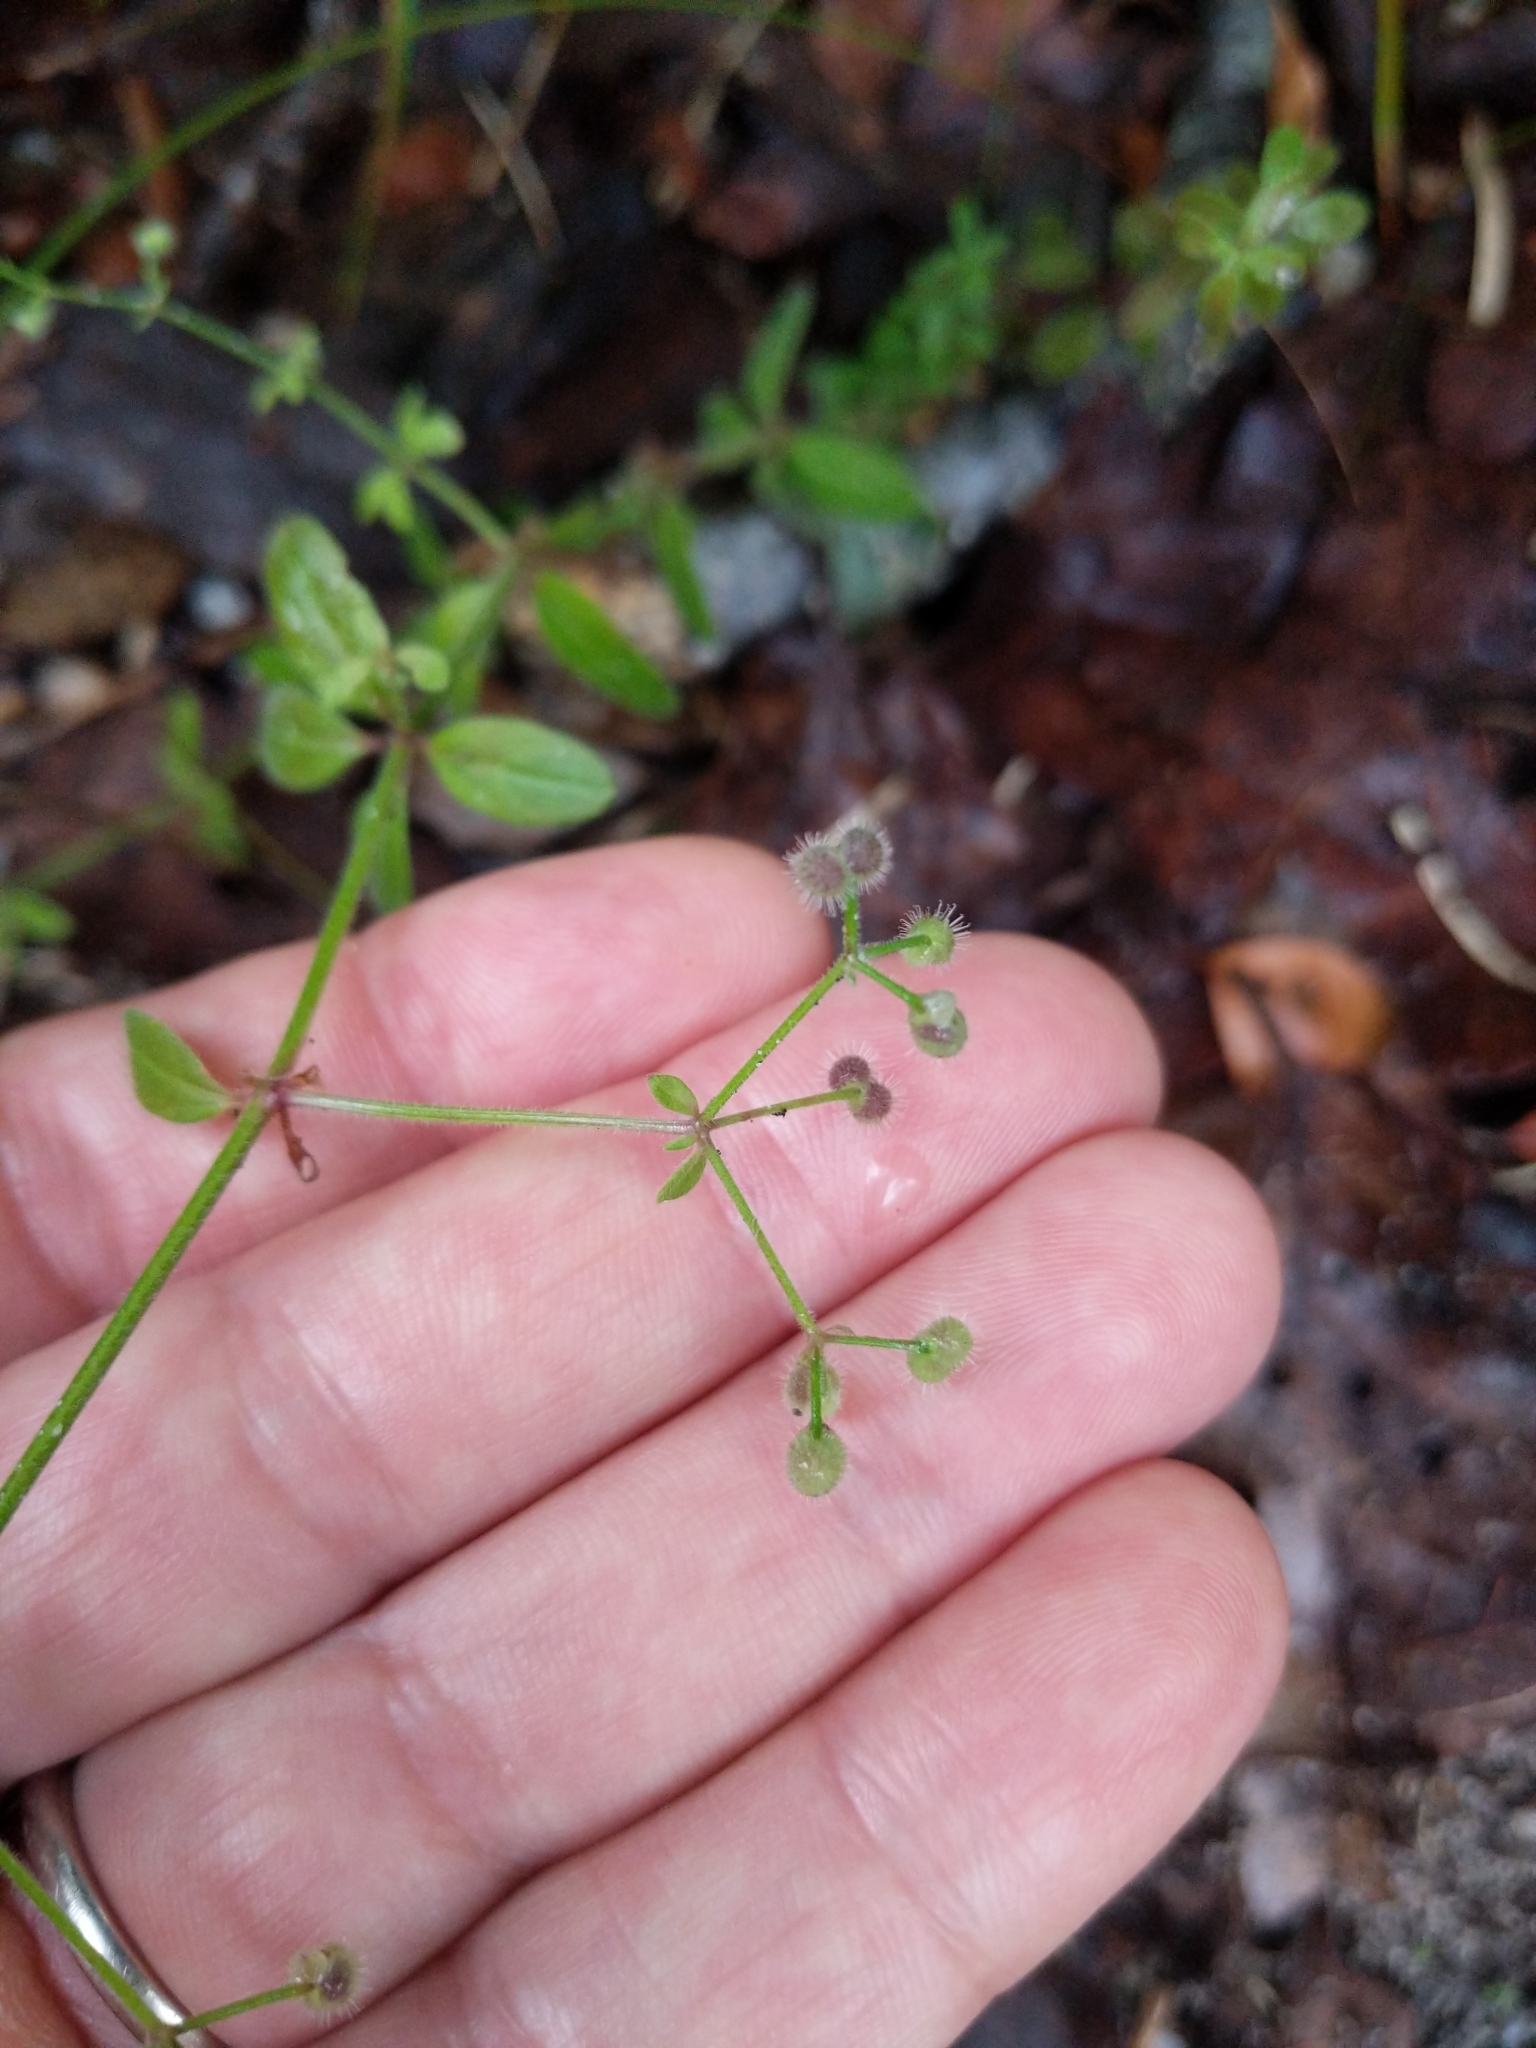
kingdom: Plantae
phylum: Tracheophyta
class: Magnoliopsida
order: Gentianales
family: Rubiaceae
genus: Galium
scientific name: Galium pilosum
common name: Hairy bedstraw
